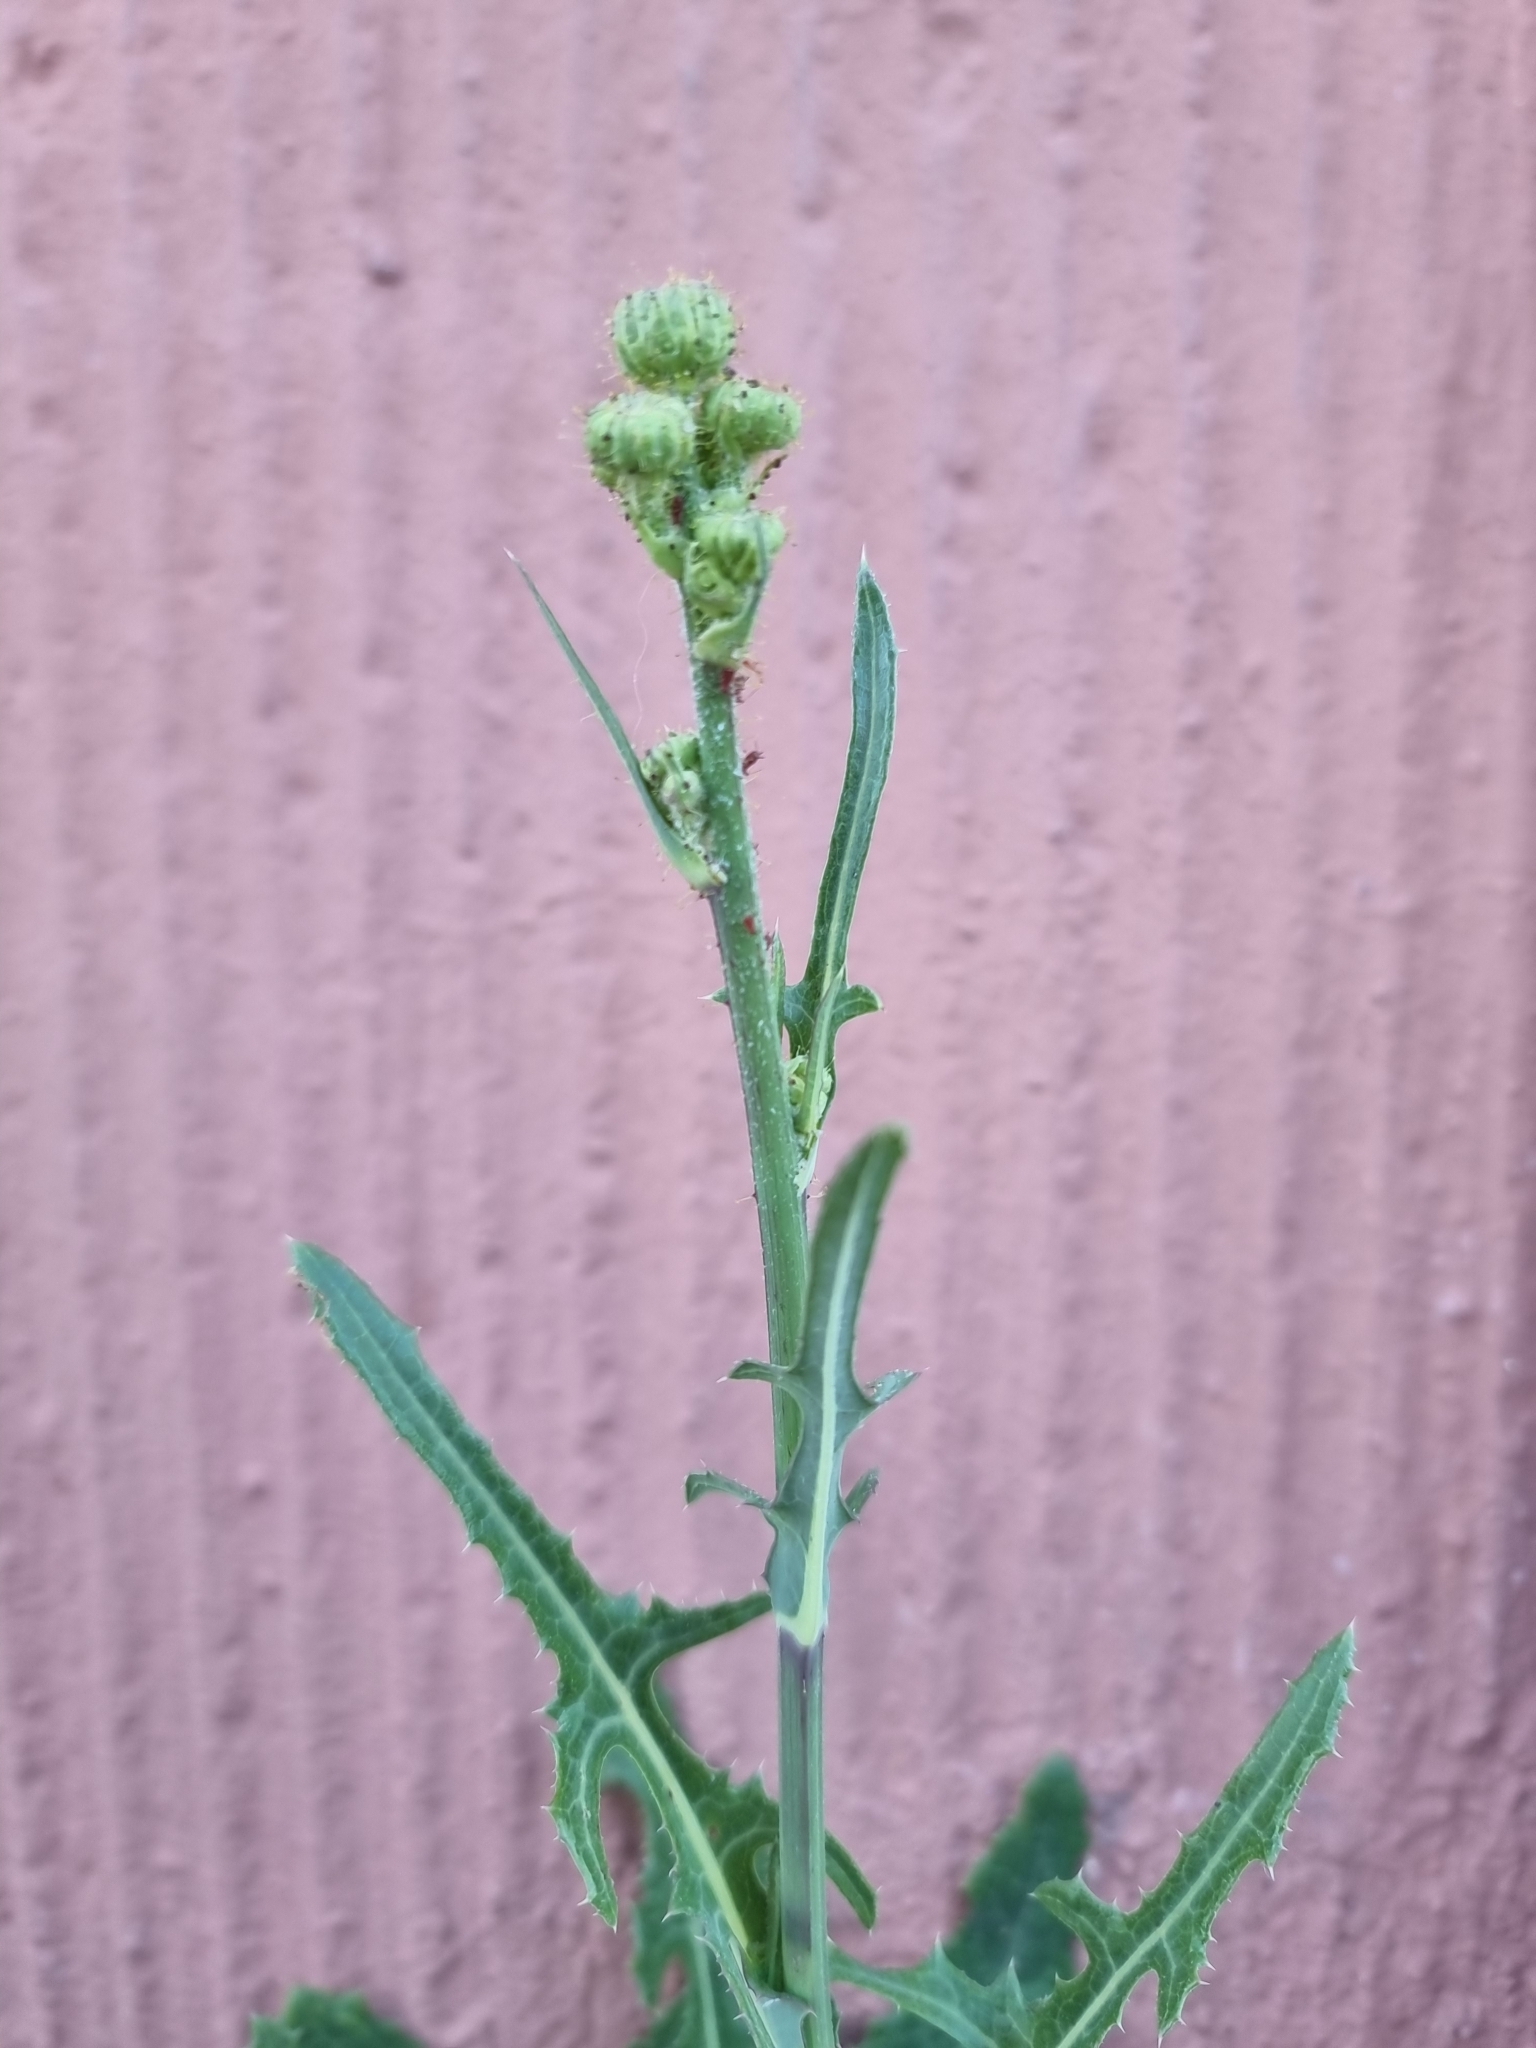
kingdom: Plantae
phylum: Tracheophyta
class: Magnoliopsida
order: Asterales
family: Asteraceae
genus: Sonchus
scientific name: Sonchus arvensis
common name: Perennial sow-thistle
